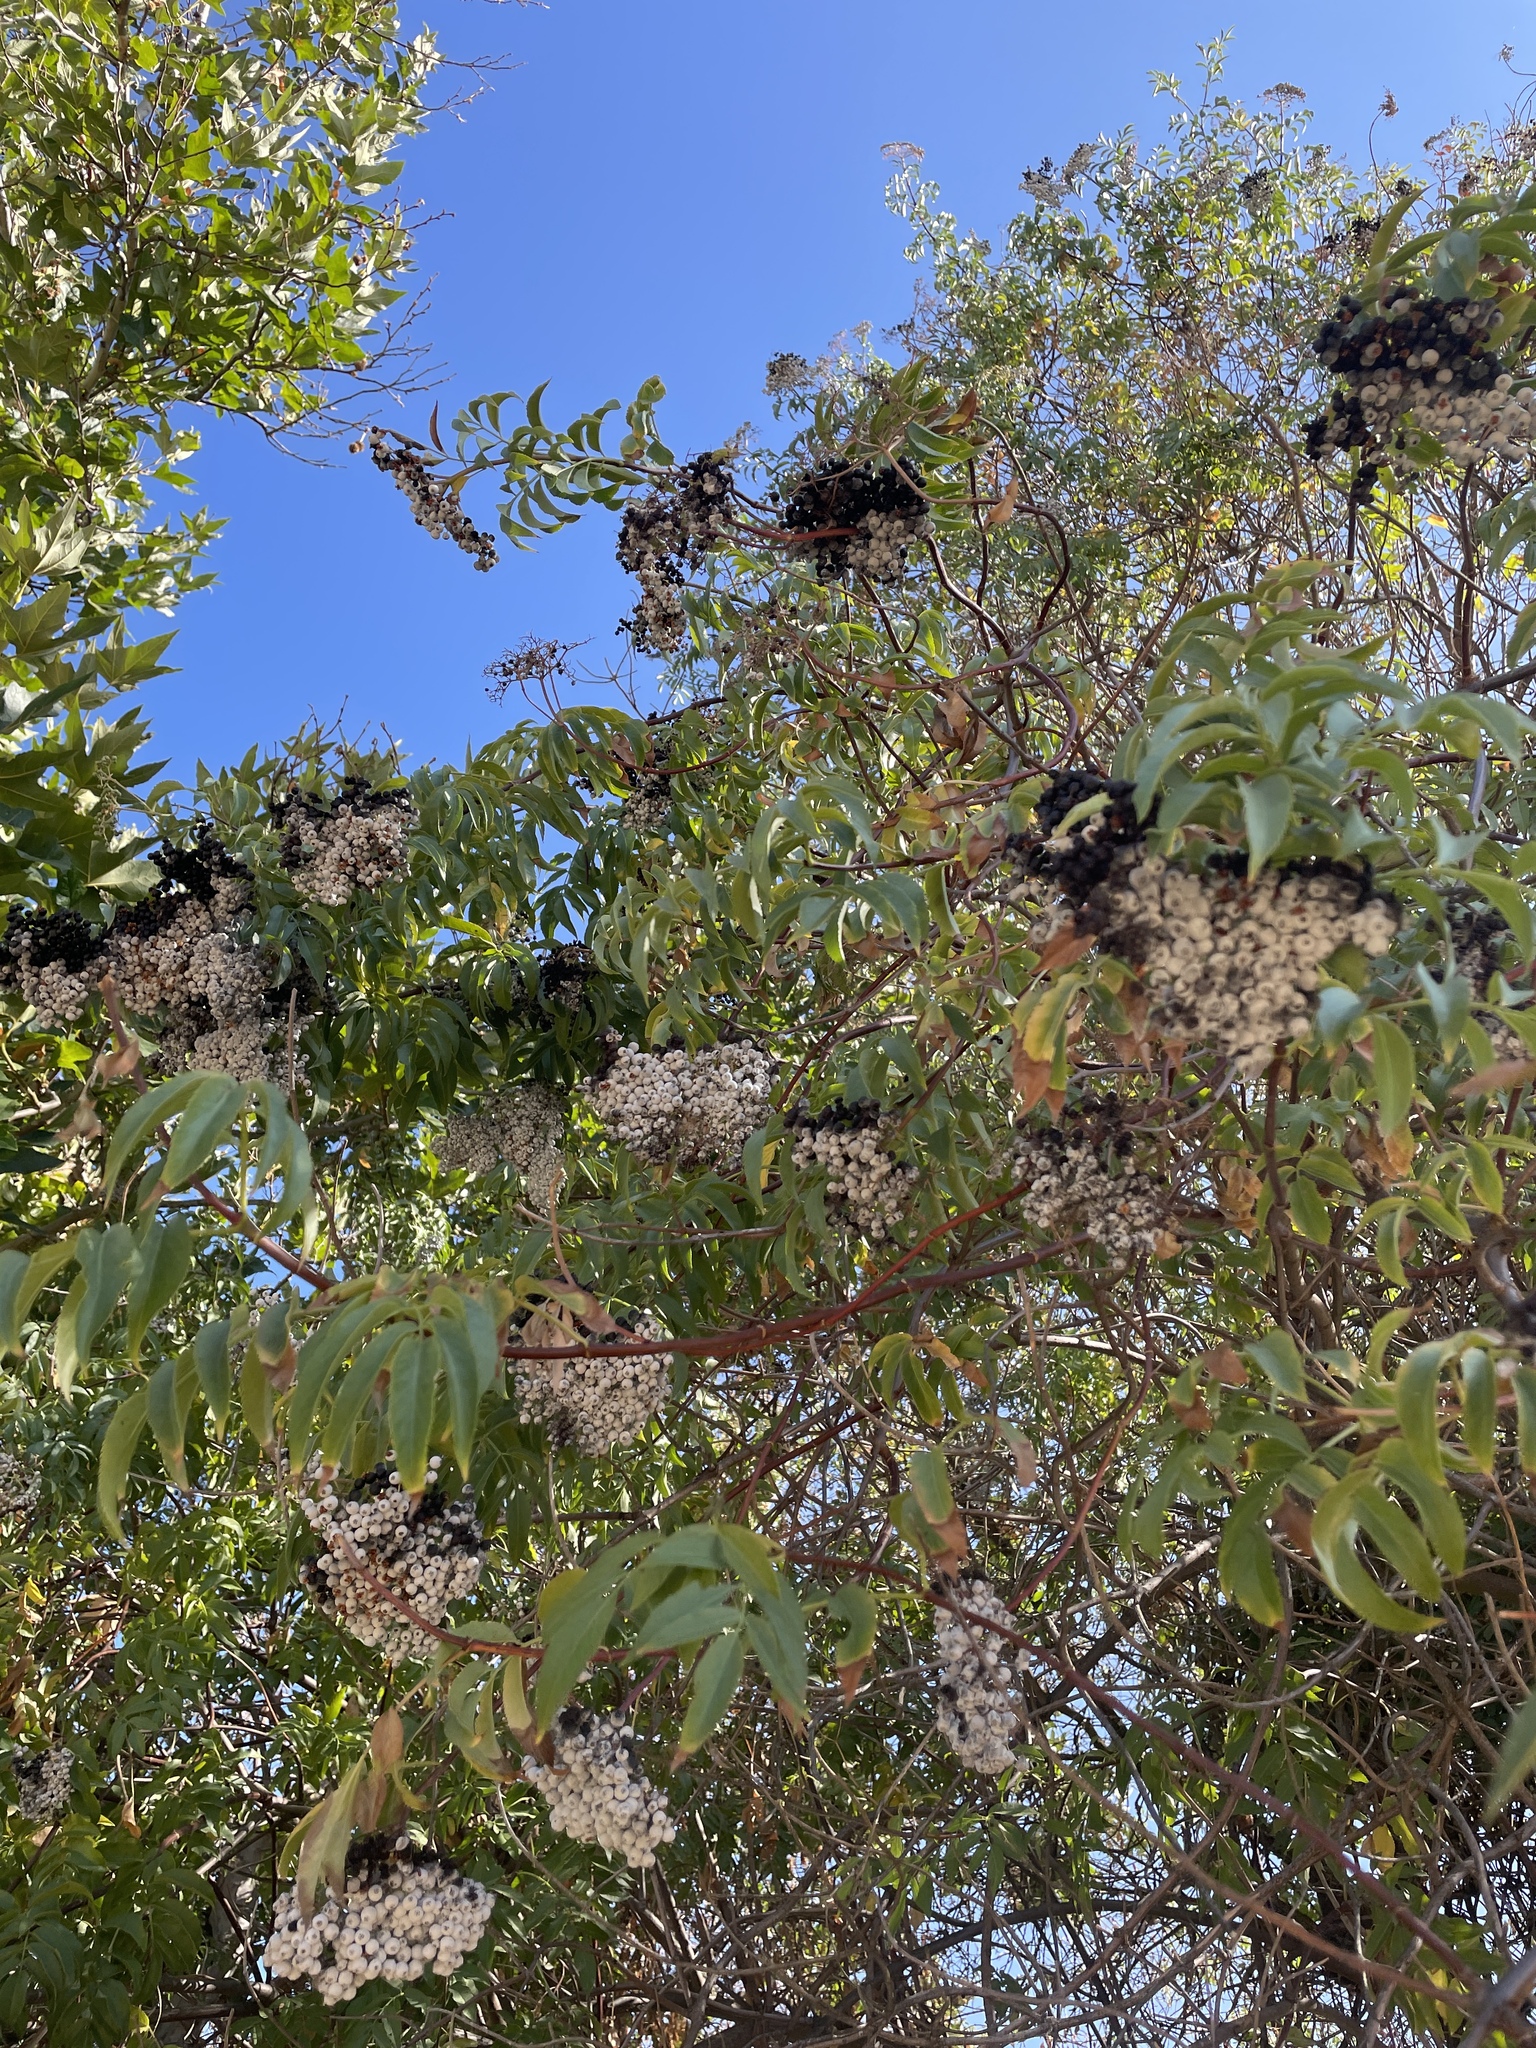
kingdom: Plantae
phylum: Tracheophyta
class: Magnoliopsida
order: Dipsacales
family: Viburnaceae
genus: Sambucus
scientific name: Sambucus cerulea
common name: Blue elder
